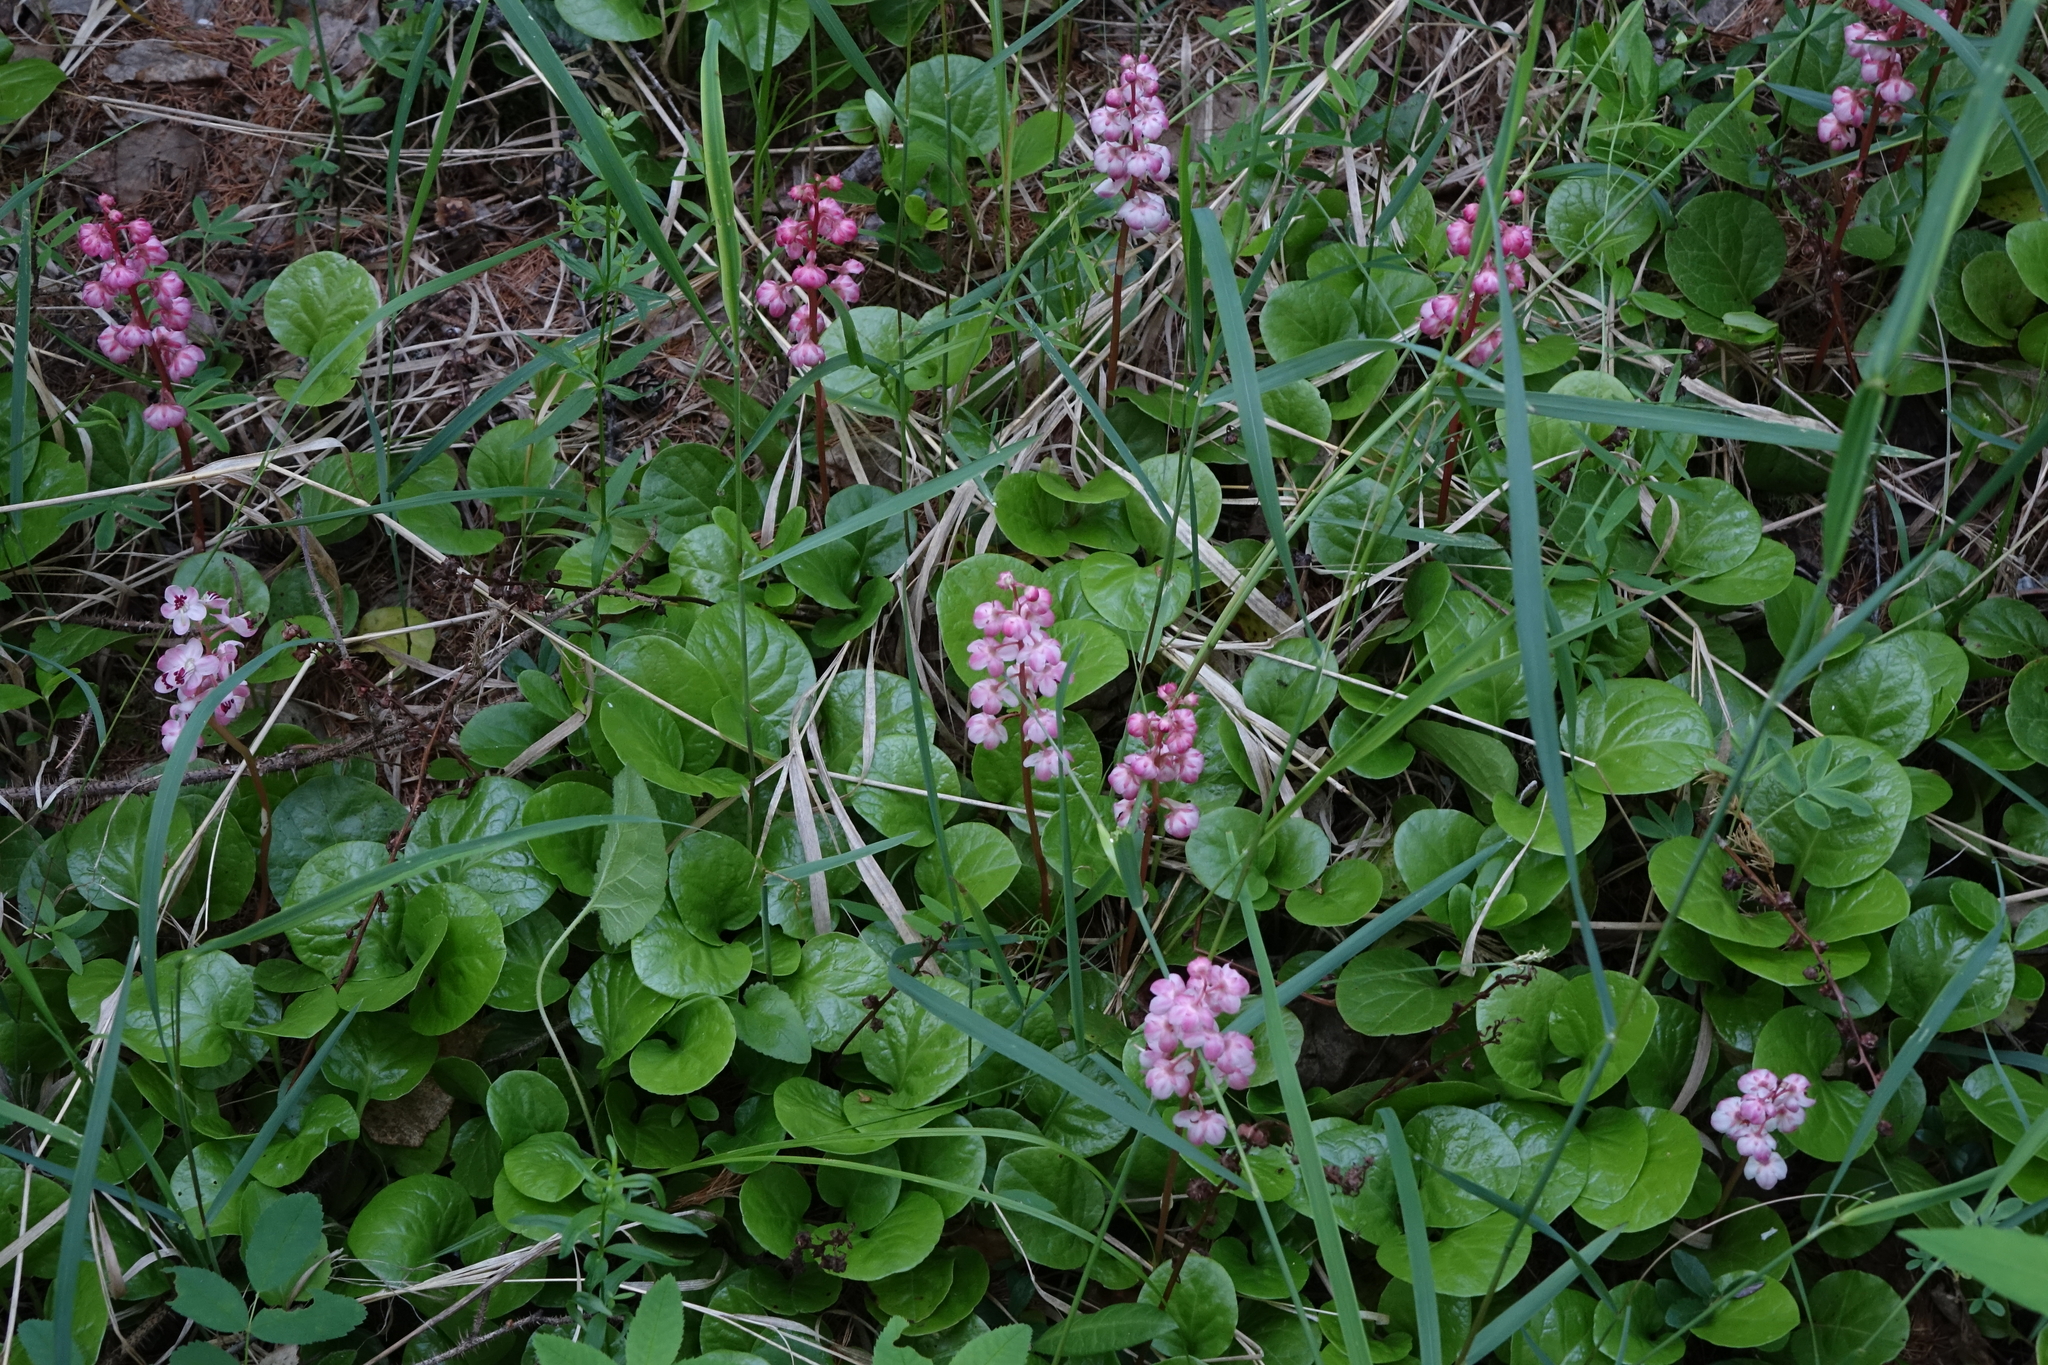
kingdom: Plantae
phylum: Tracheophyta
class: Magnoliopsida
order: Ericales
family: Ericaceae
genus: Pyrola
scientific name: Pyrola asarifolia
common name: Bog wintergreen
